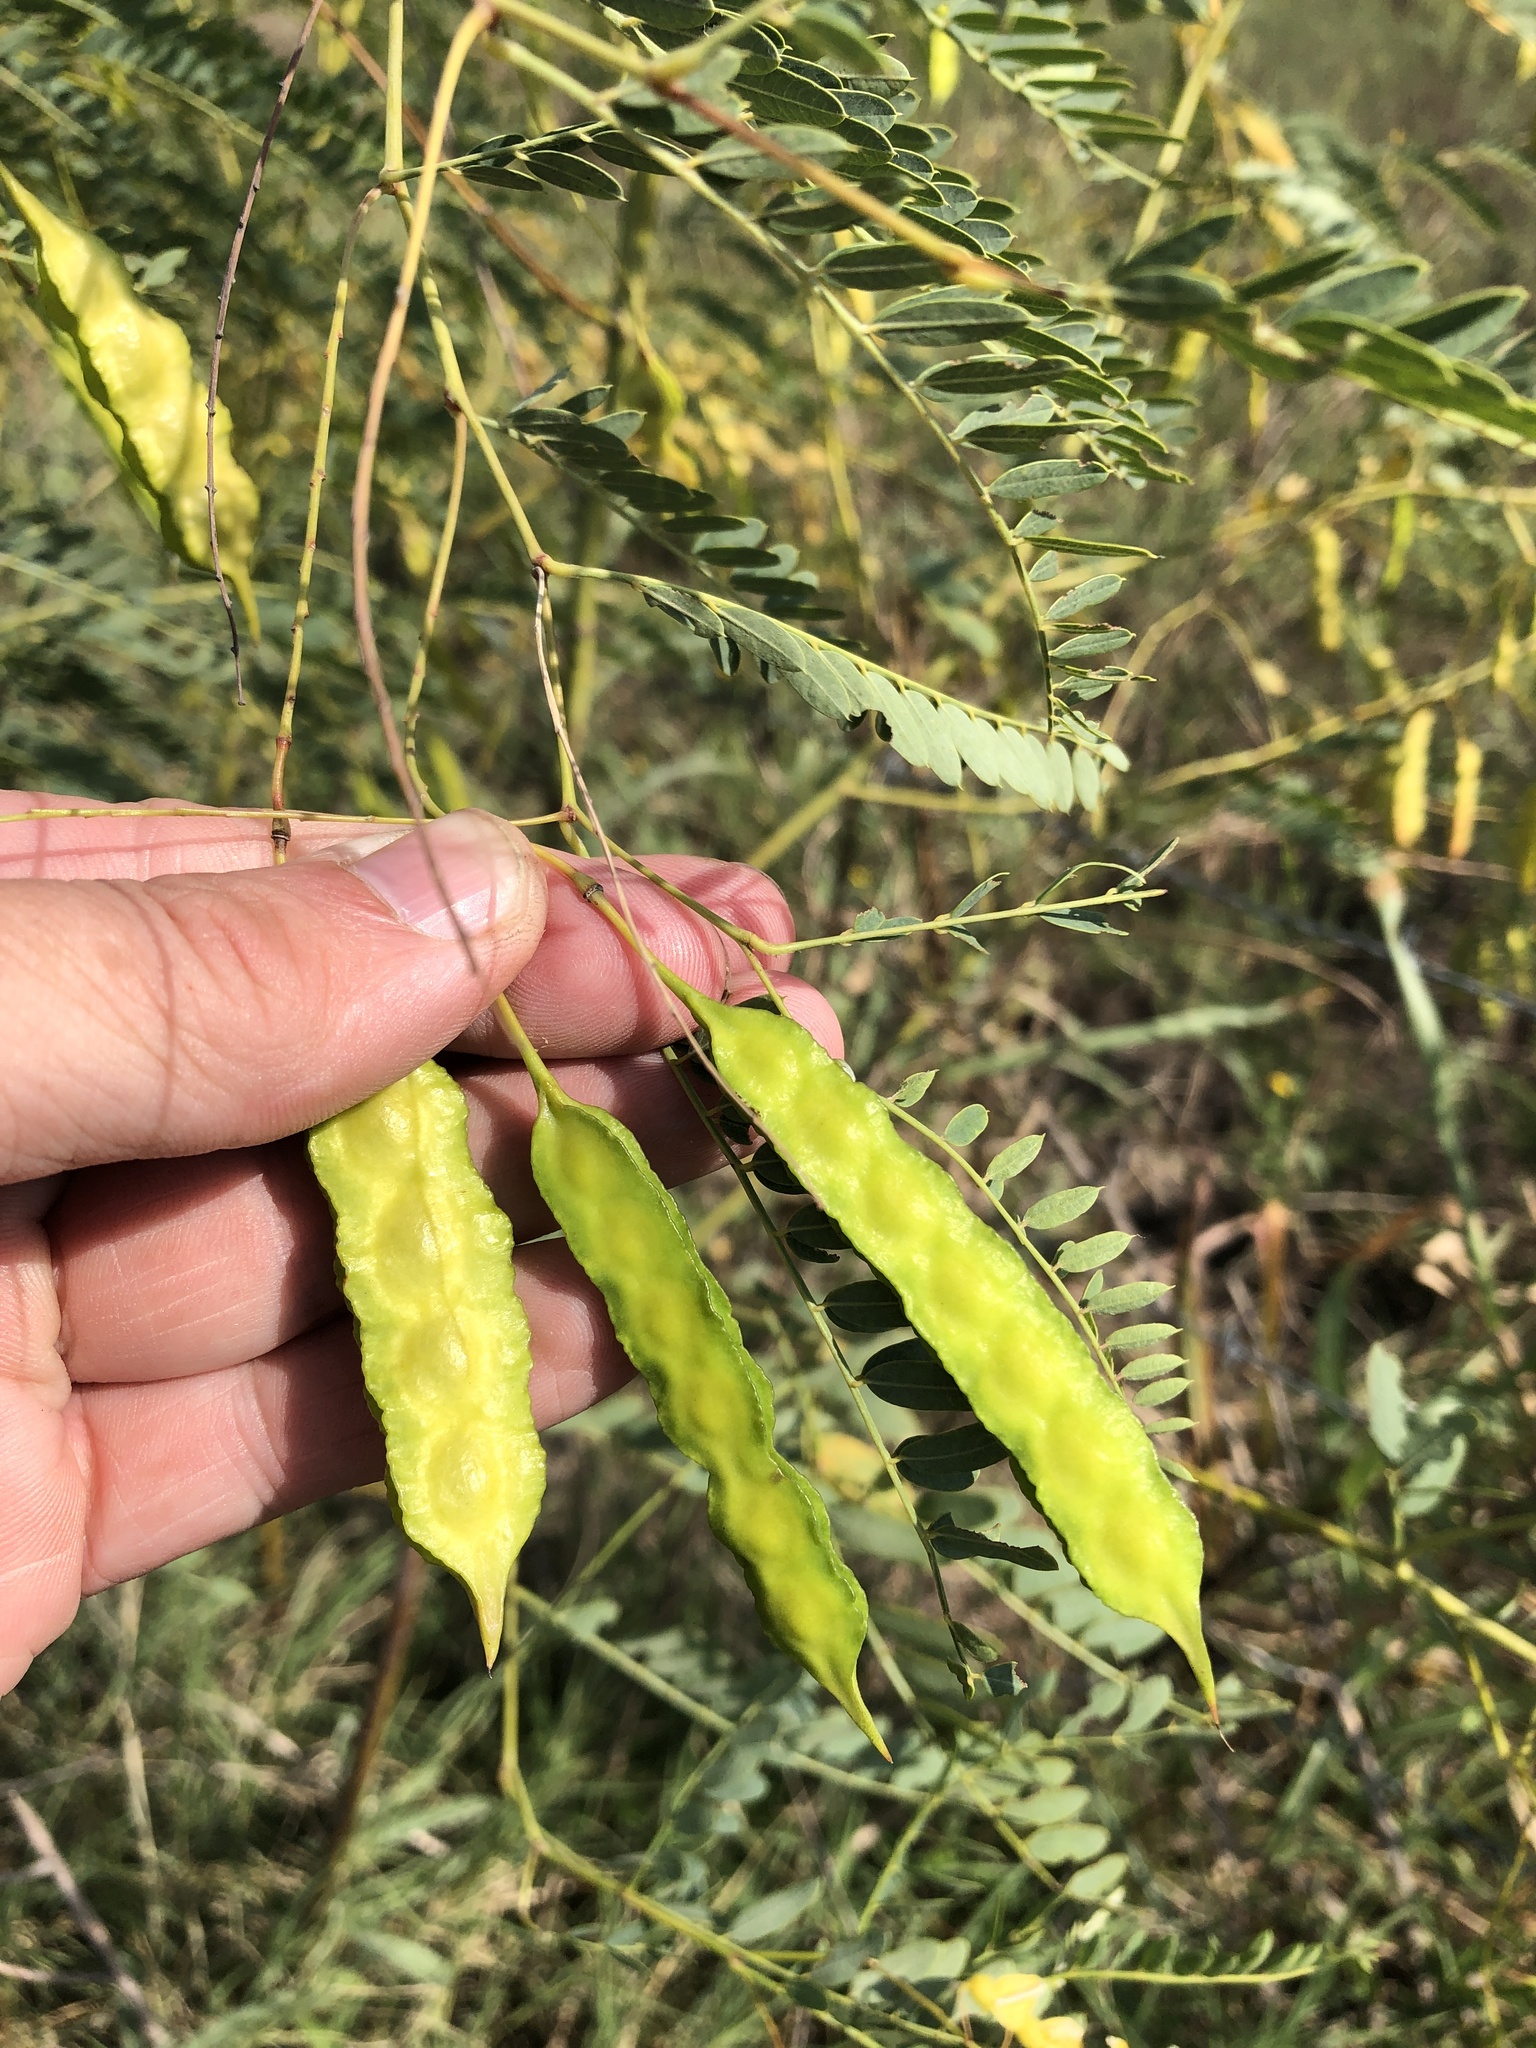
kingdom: Plantae
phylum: Tracheophyta
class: Magnoliopsida
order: Fabales
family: Fabaceae
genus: Sesbania
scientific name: Sesbania drummondii
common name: Poison-bean
